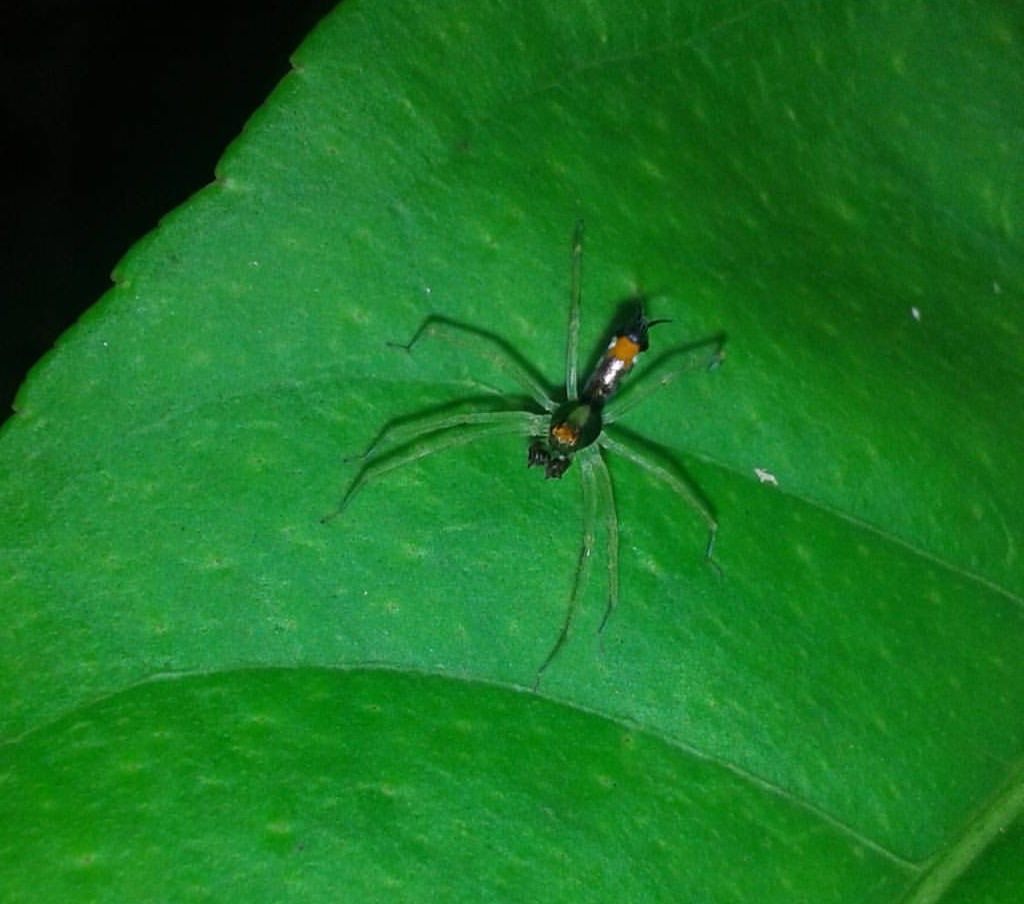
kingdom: Animalia
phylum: Arthropoda
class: Arachnida
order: Araneae
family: Salticidae
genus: Asemonea
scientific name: Asemonea tenuipes
